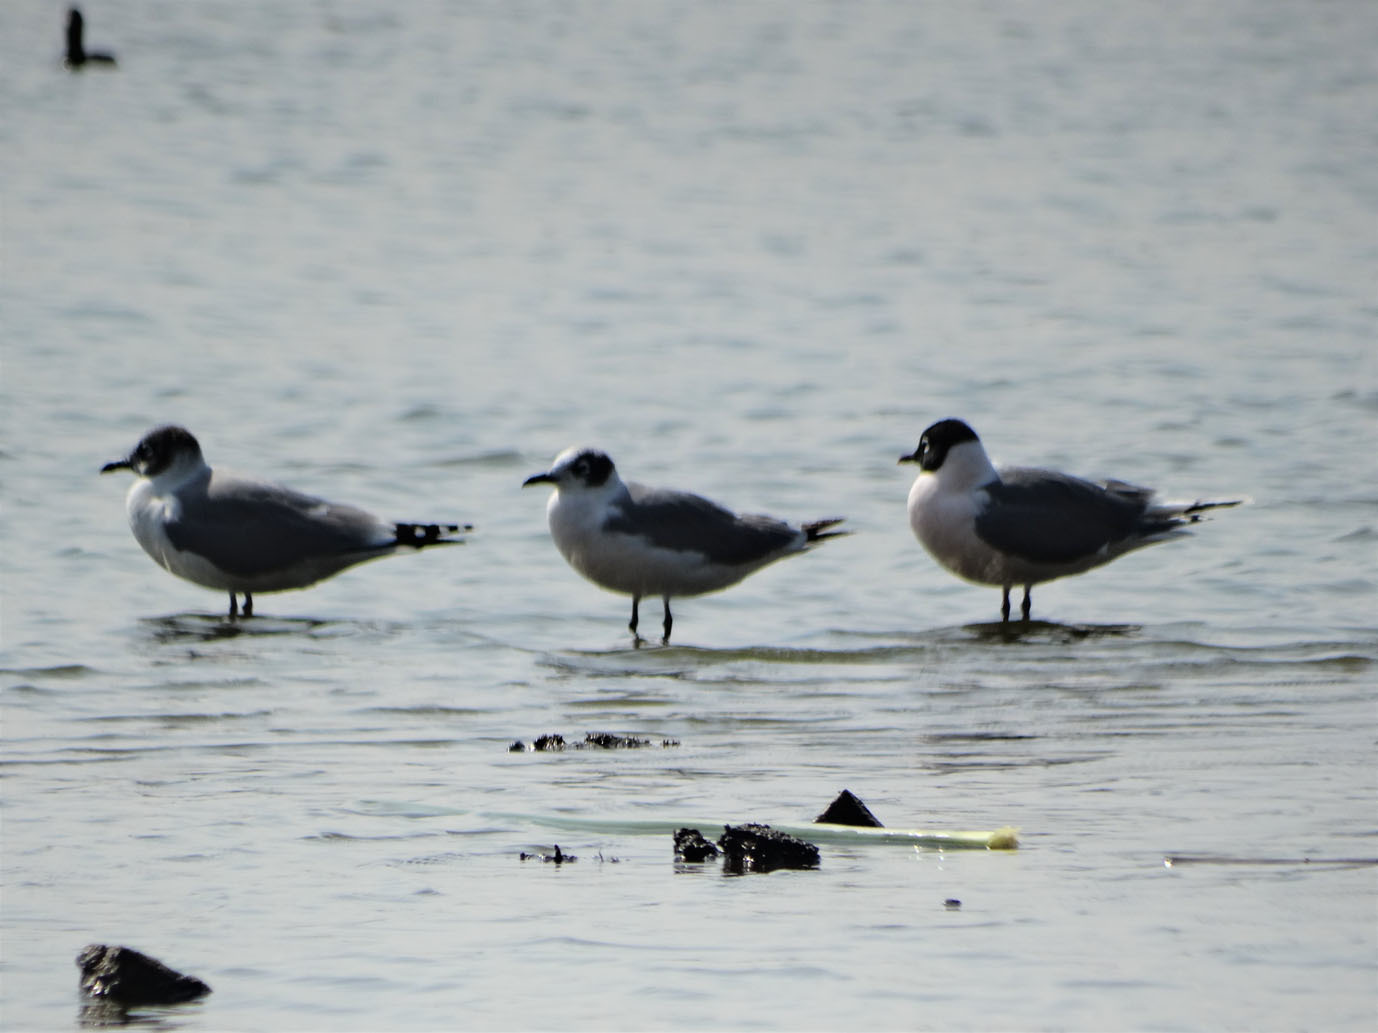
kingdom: Animalia
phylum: Chordata
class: Aves
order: Charadriiformes
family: Laridae
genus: Leucophaeus
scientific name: Leucophaeus pipixcan
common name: Franklin's gull
